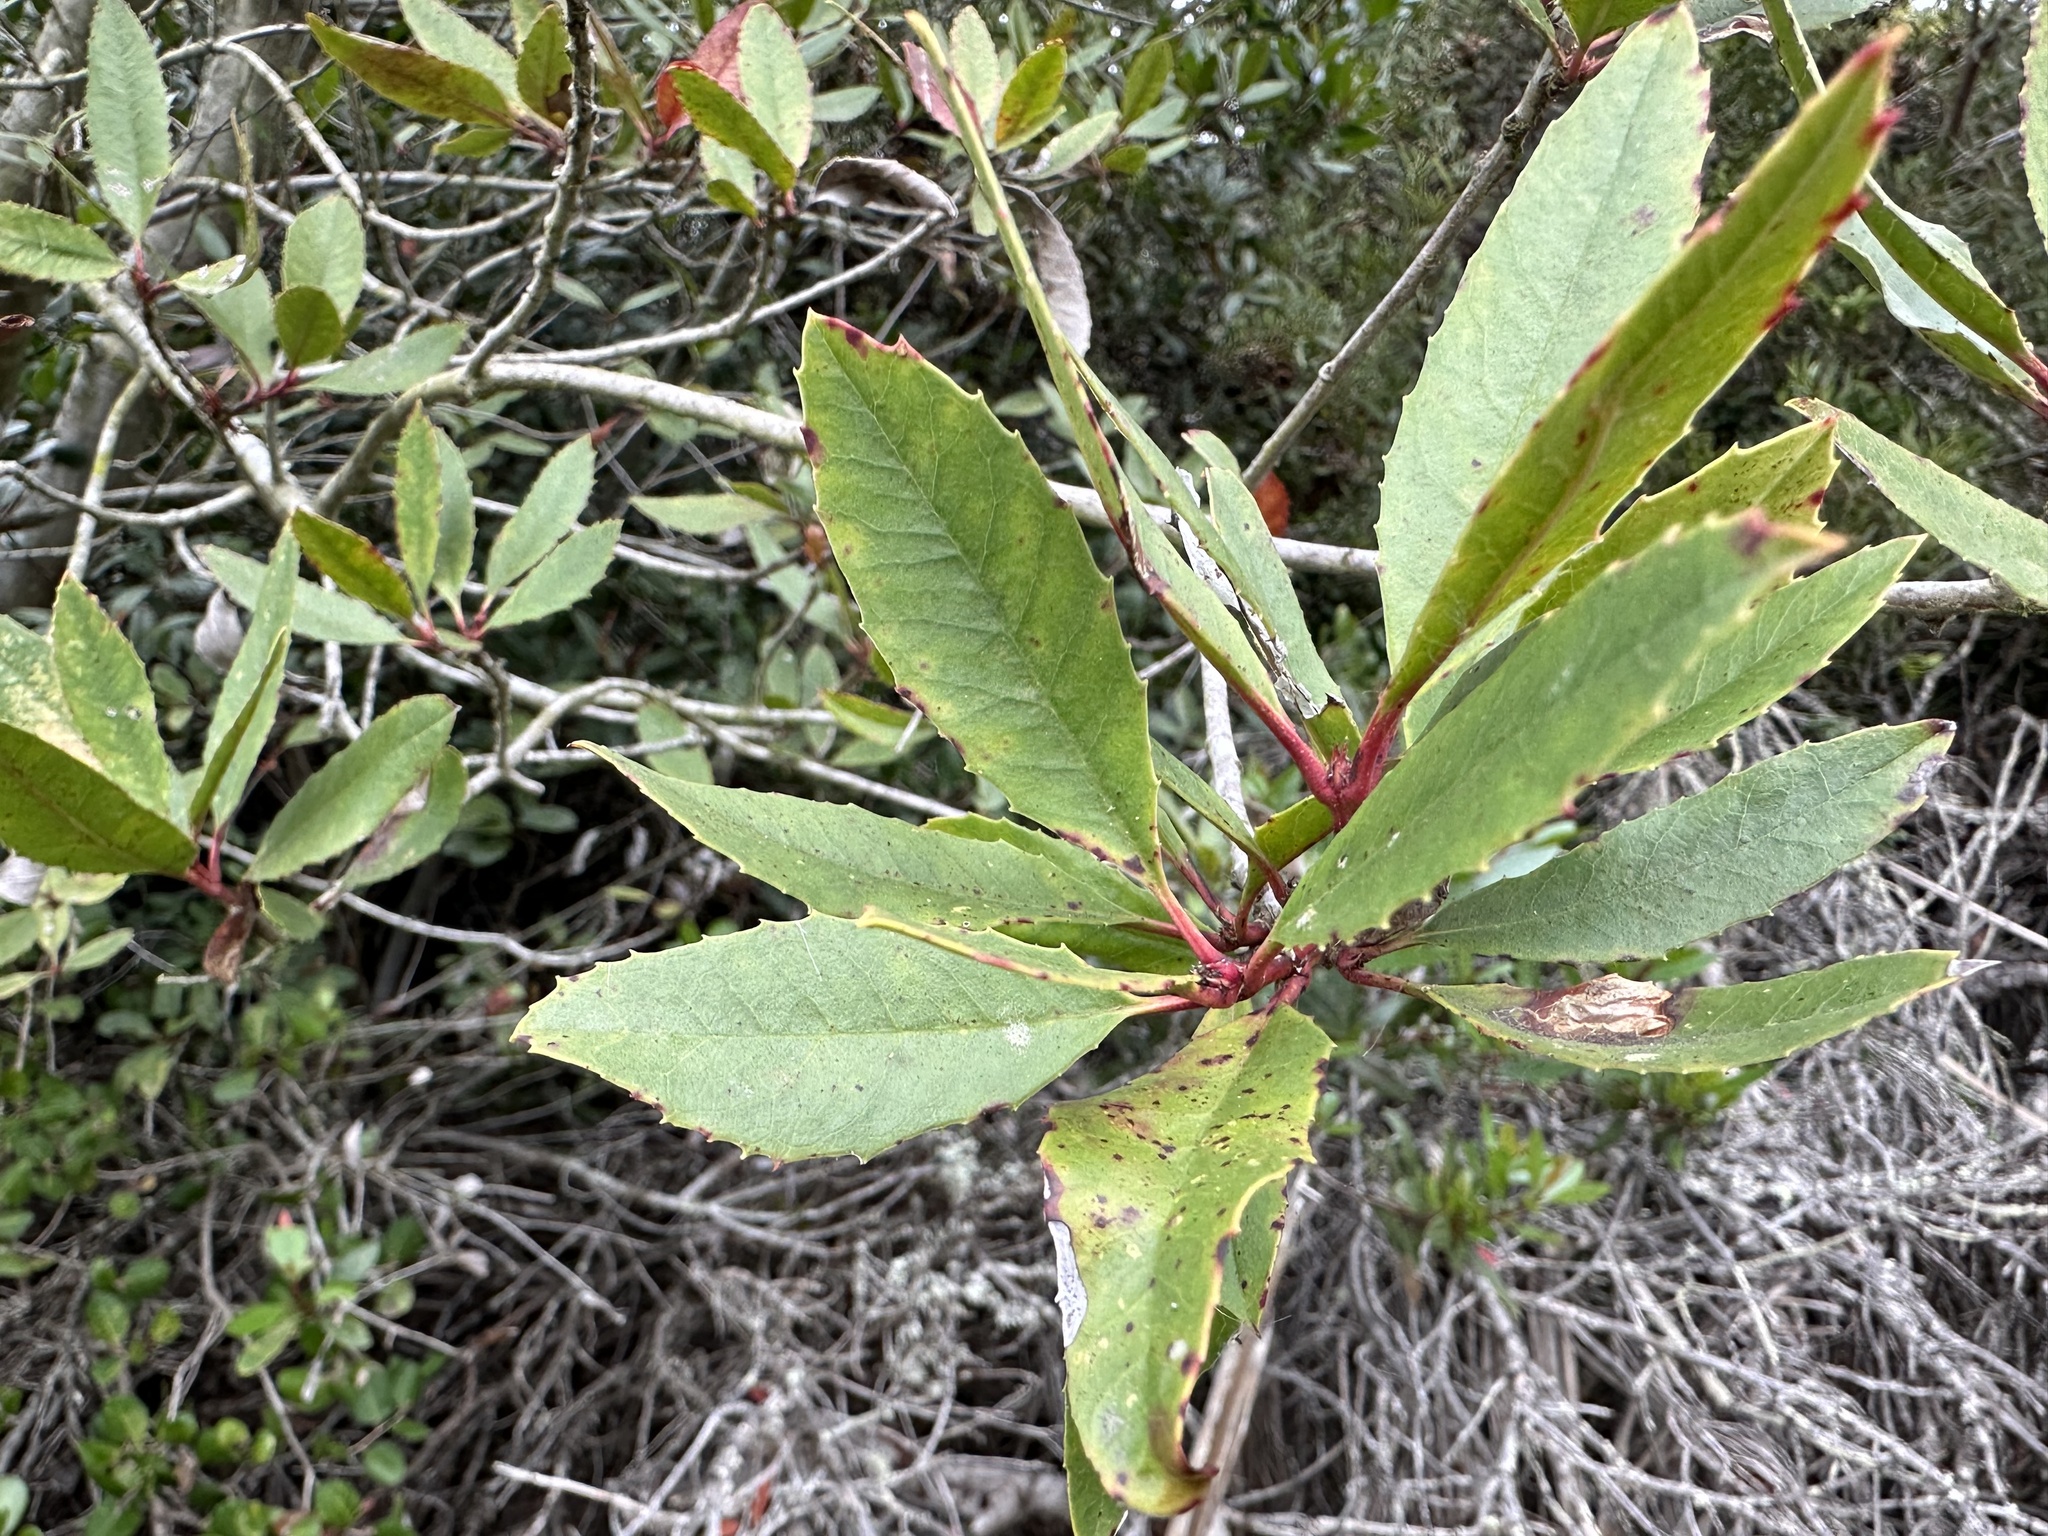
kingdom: Plantae
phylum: Tracheophyta
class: Magnoliopsida
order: Rosales
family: Rosaceae
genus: Heteromeles
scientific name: Heteromeles arbutifolia
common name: California-holly
